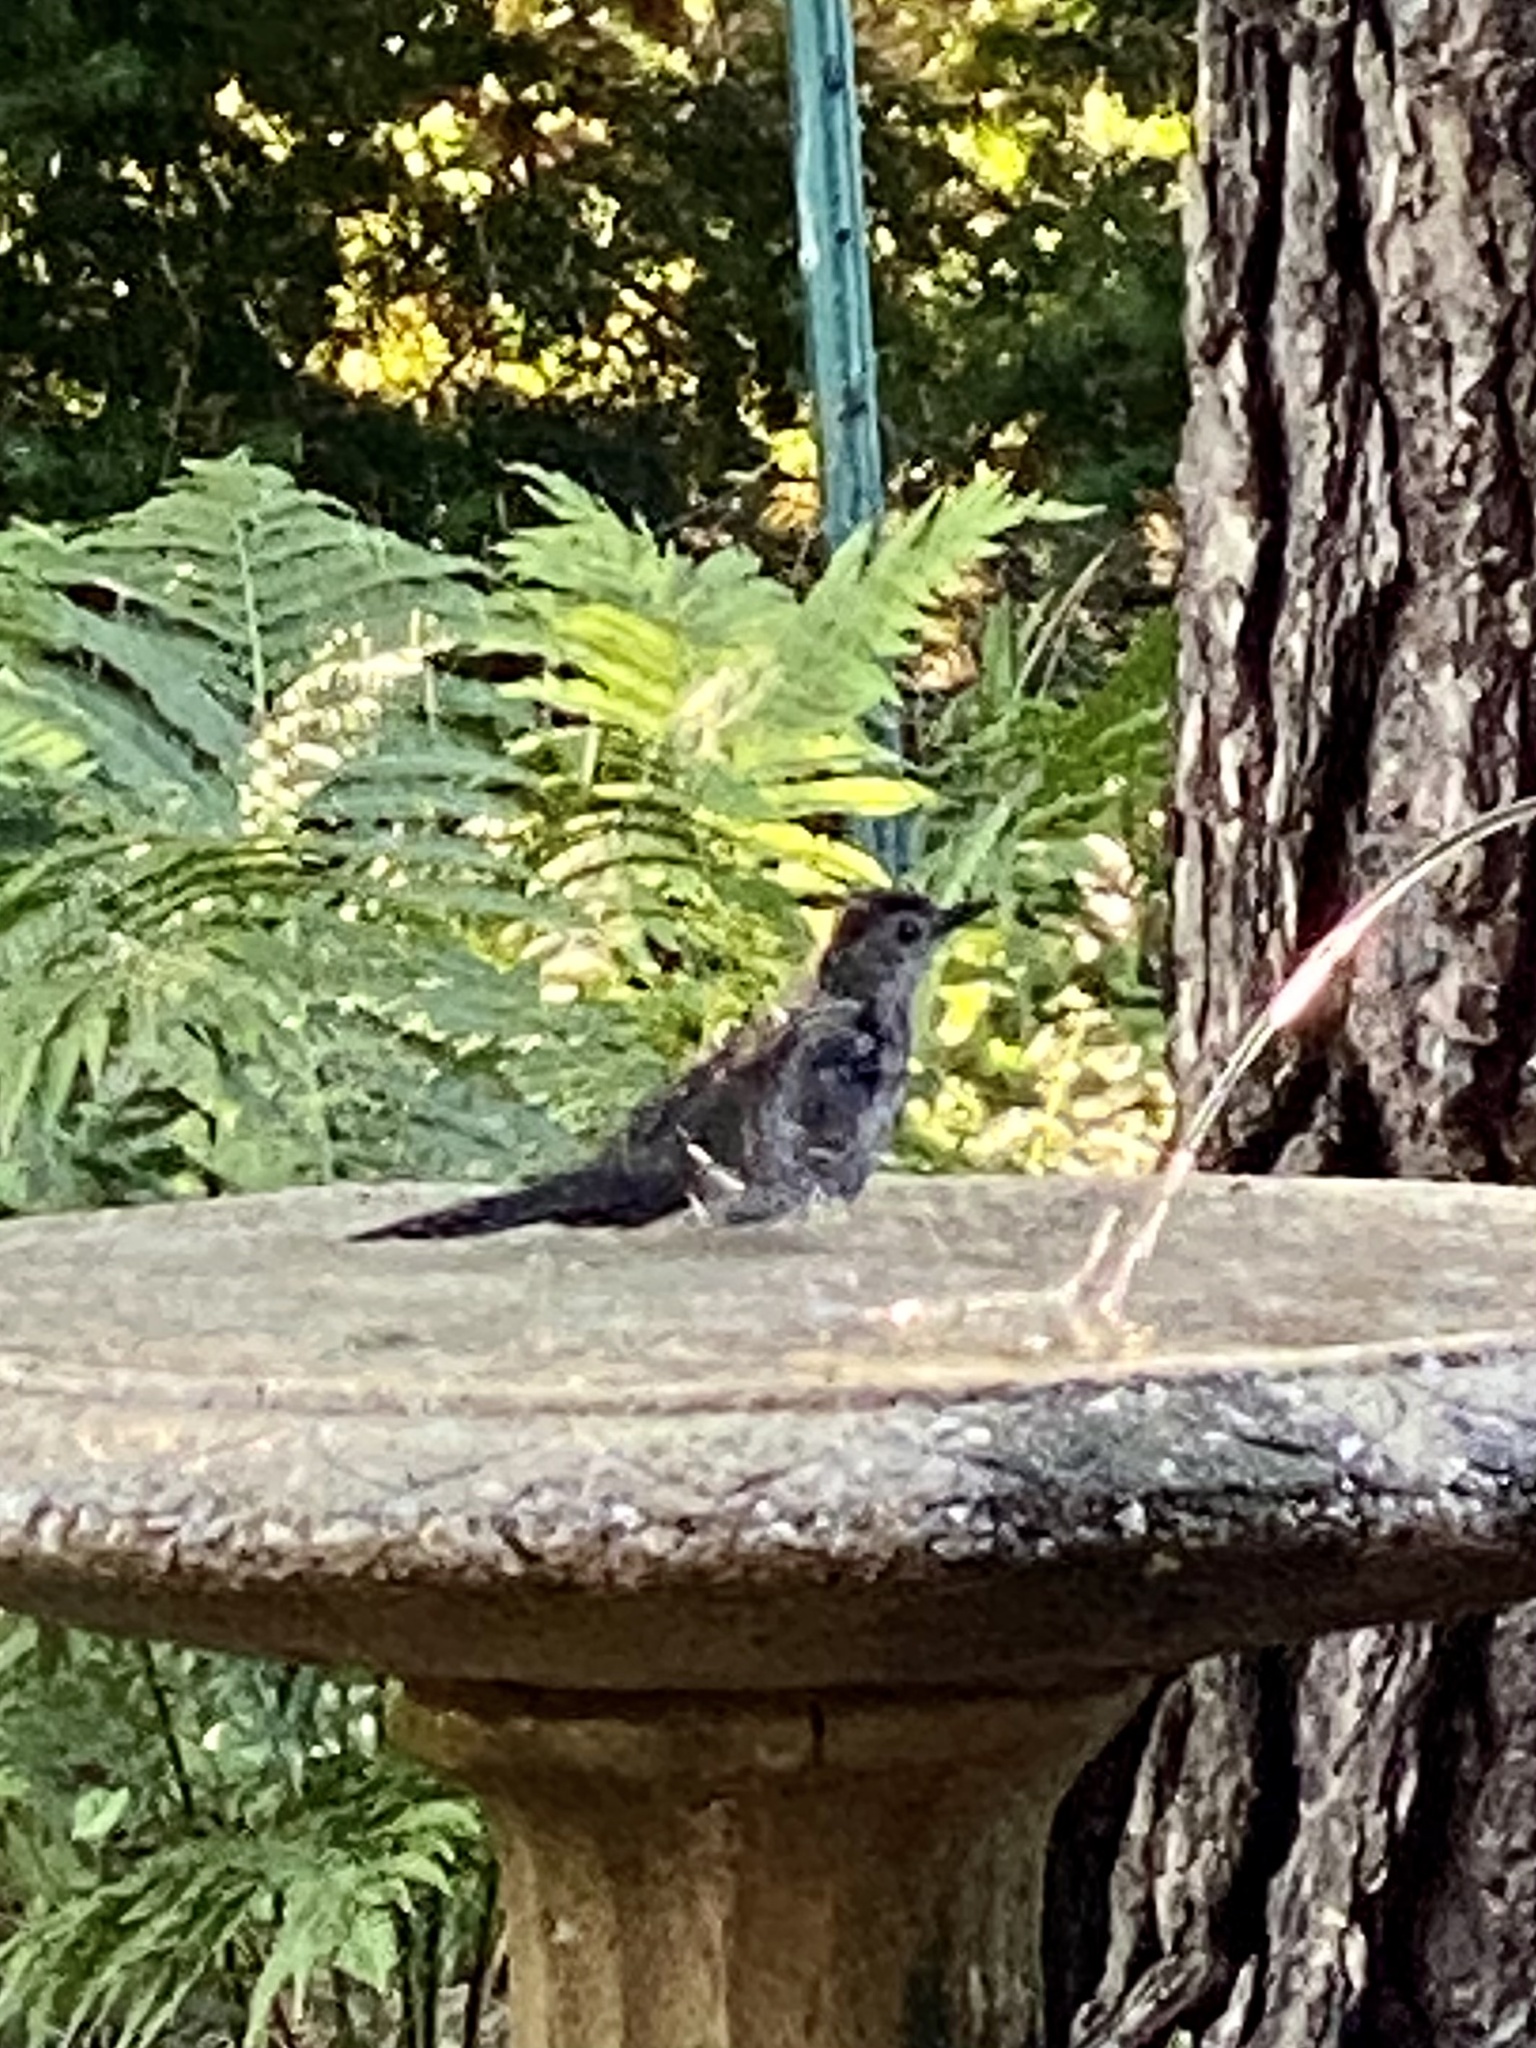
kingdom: Animalia
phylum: Chordata
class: Aves
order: Passeriformes
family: Mimidae
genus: Dumetella
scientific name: Dumetella carolinensis
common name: Gray catbird
